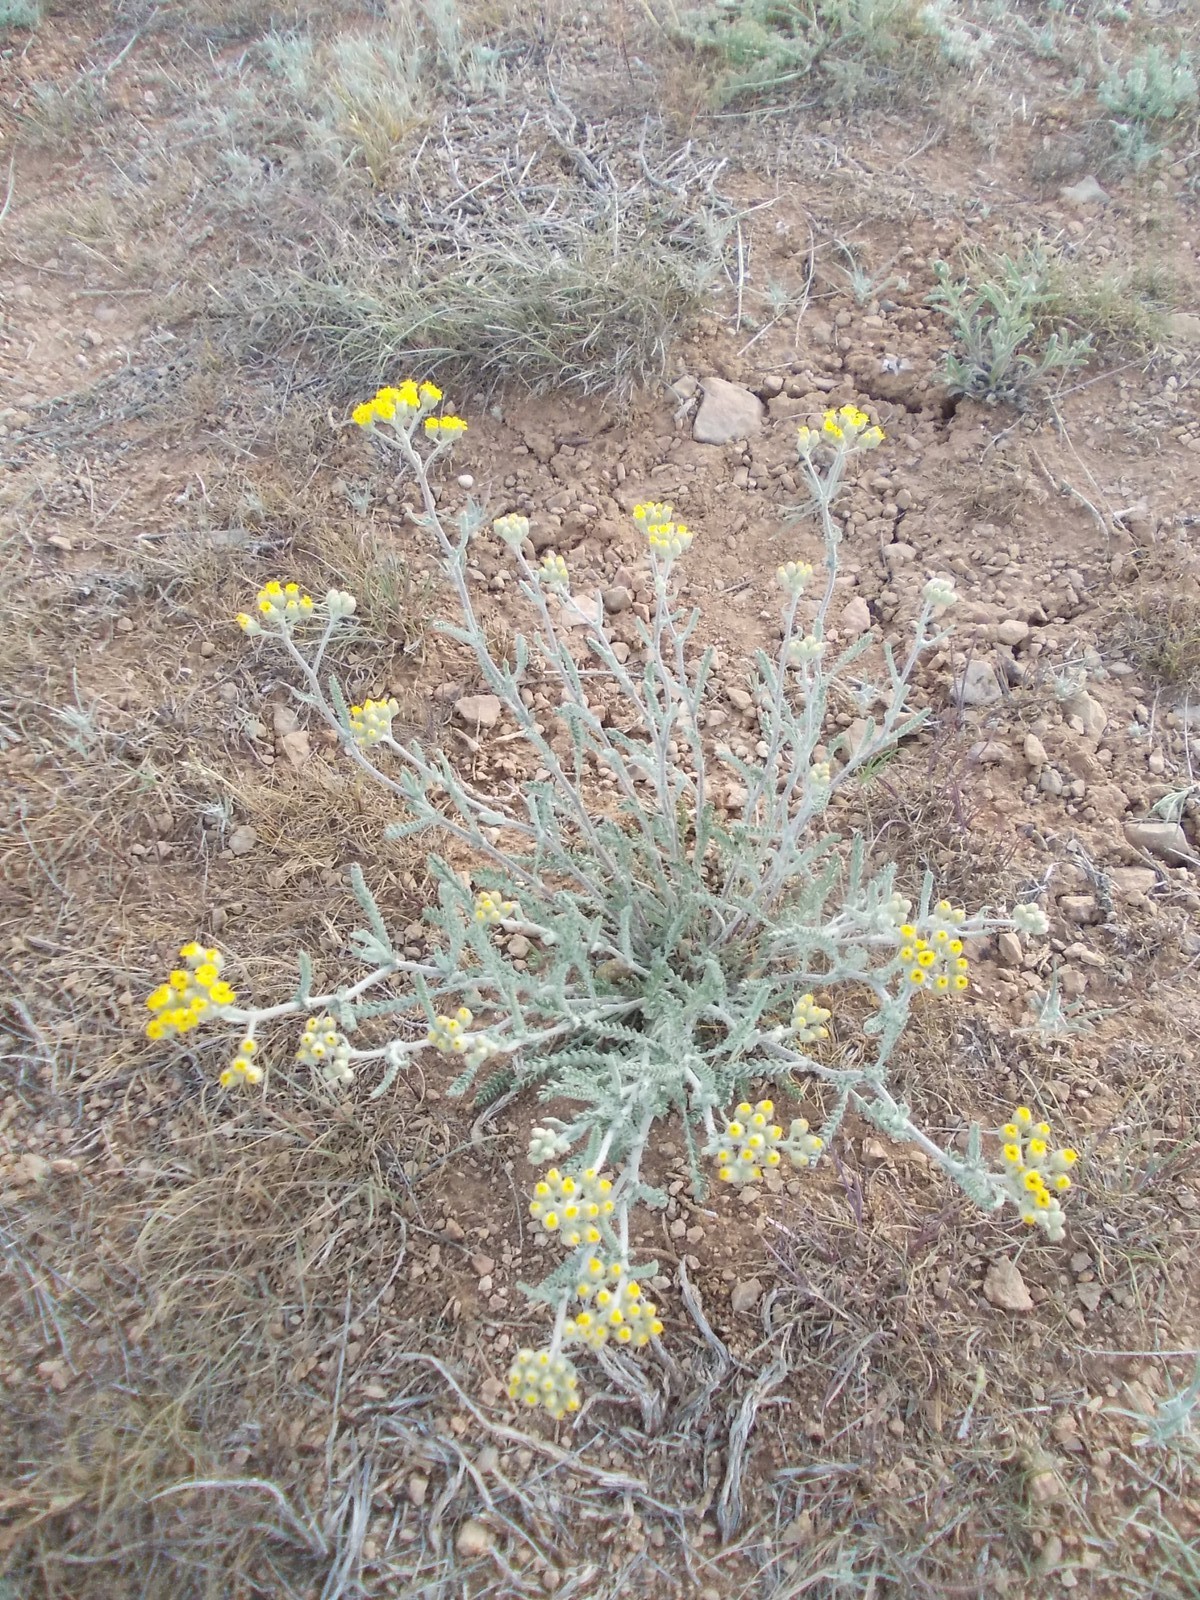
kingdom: Plantae
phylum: Tracheophyta
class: Magnoliopsida
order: Asterales
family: Asteraceae
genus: Achillea
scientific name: Achillea leptophylla
